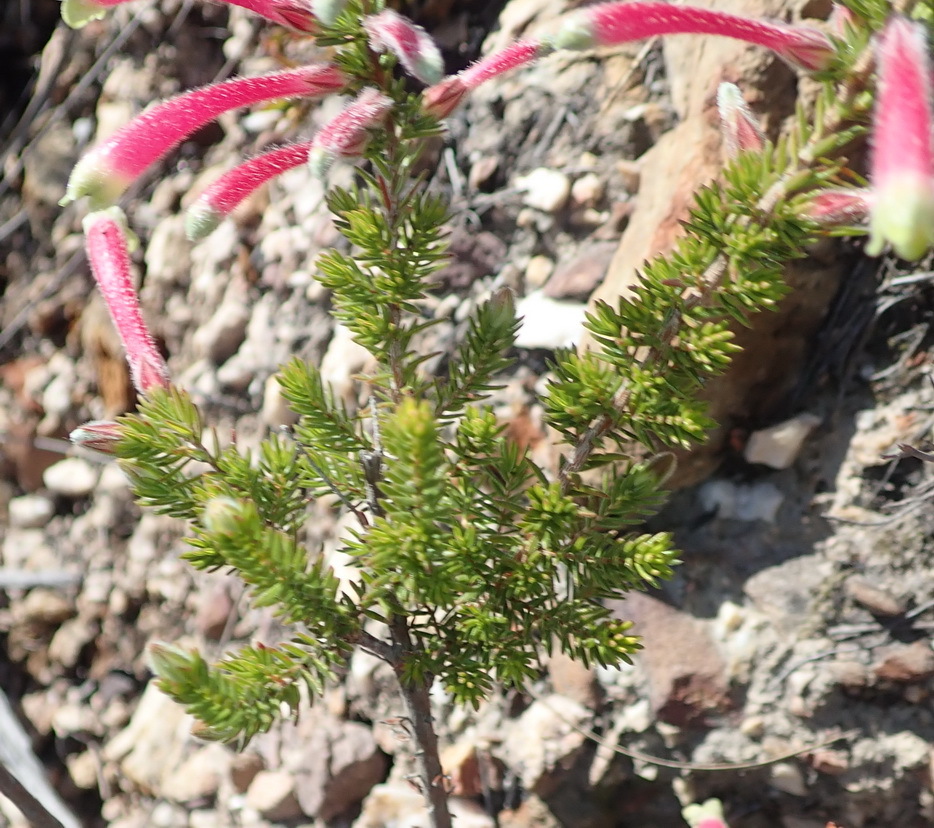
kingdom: Plantae
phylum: Tracheophyta
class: Magnoliopsida
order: Ericales
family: Ericaceae
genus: Erica
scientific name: Erica densifolia
